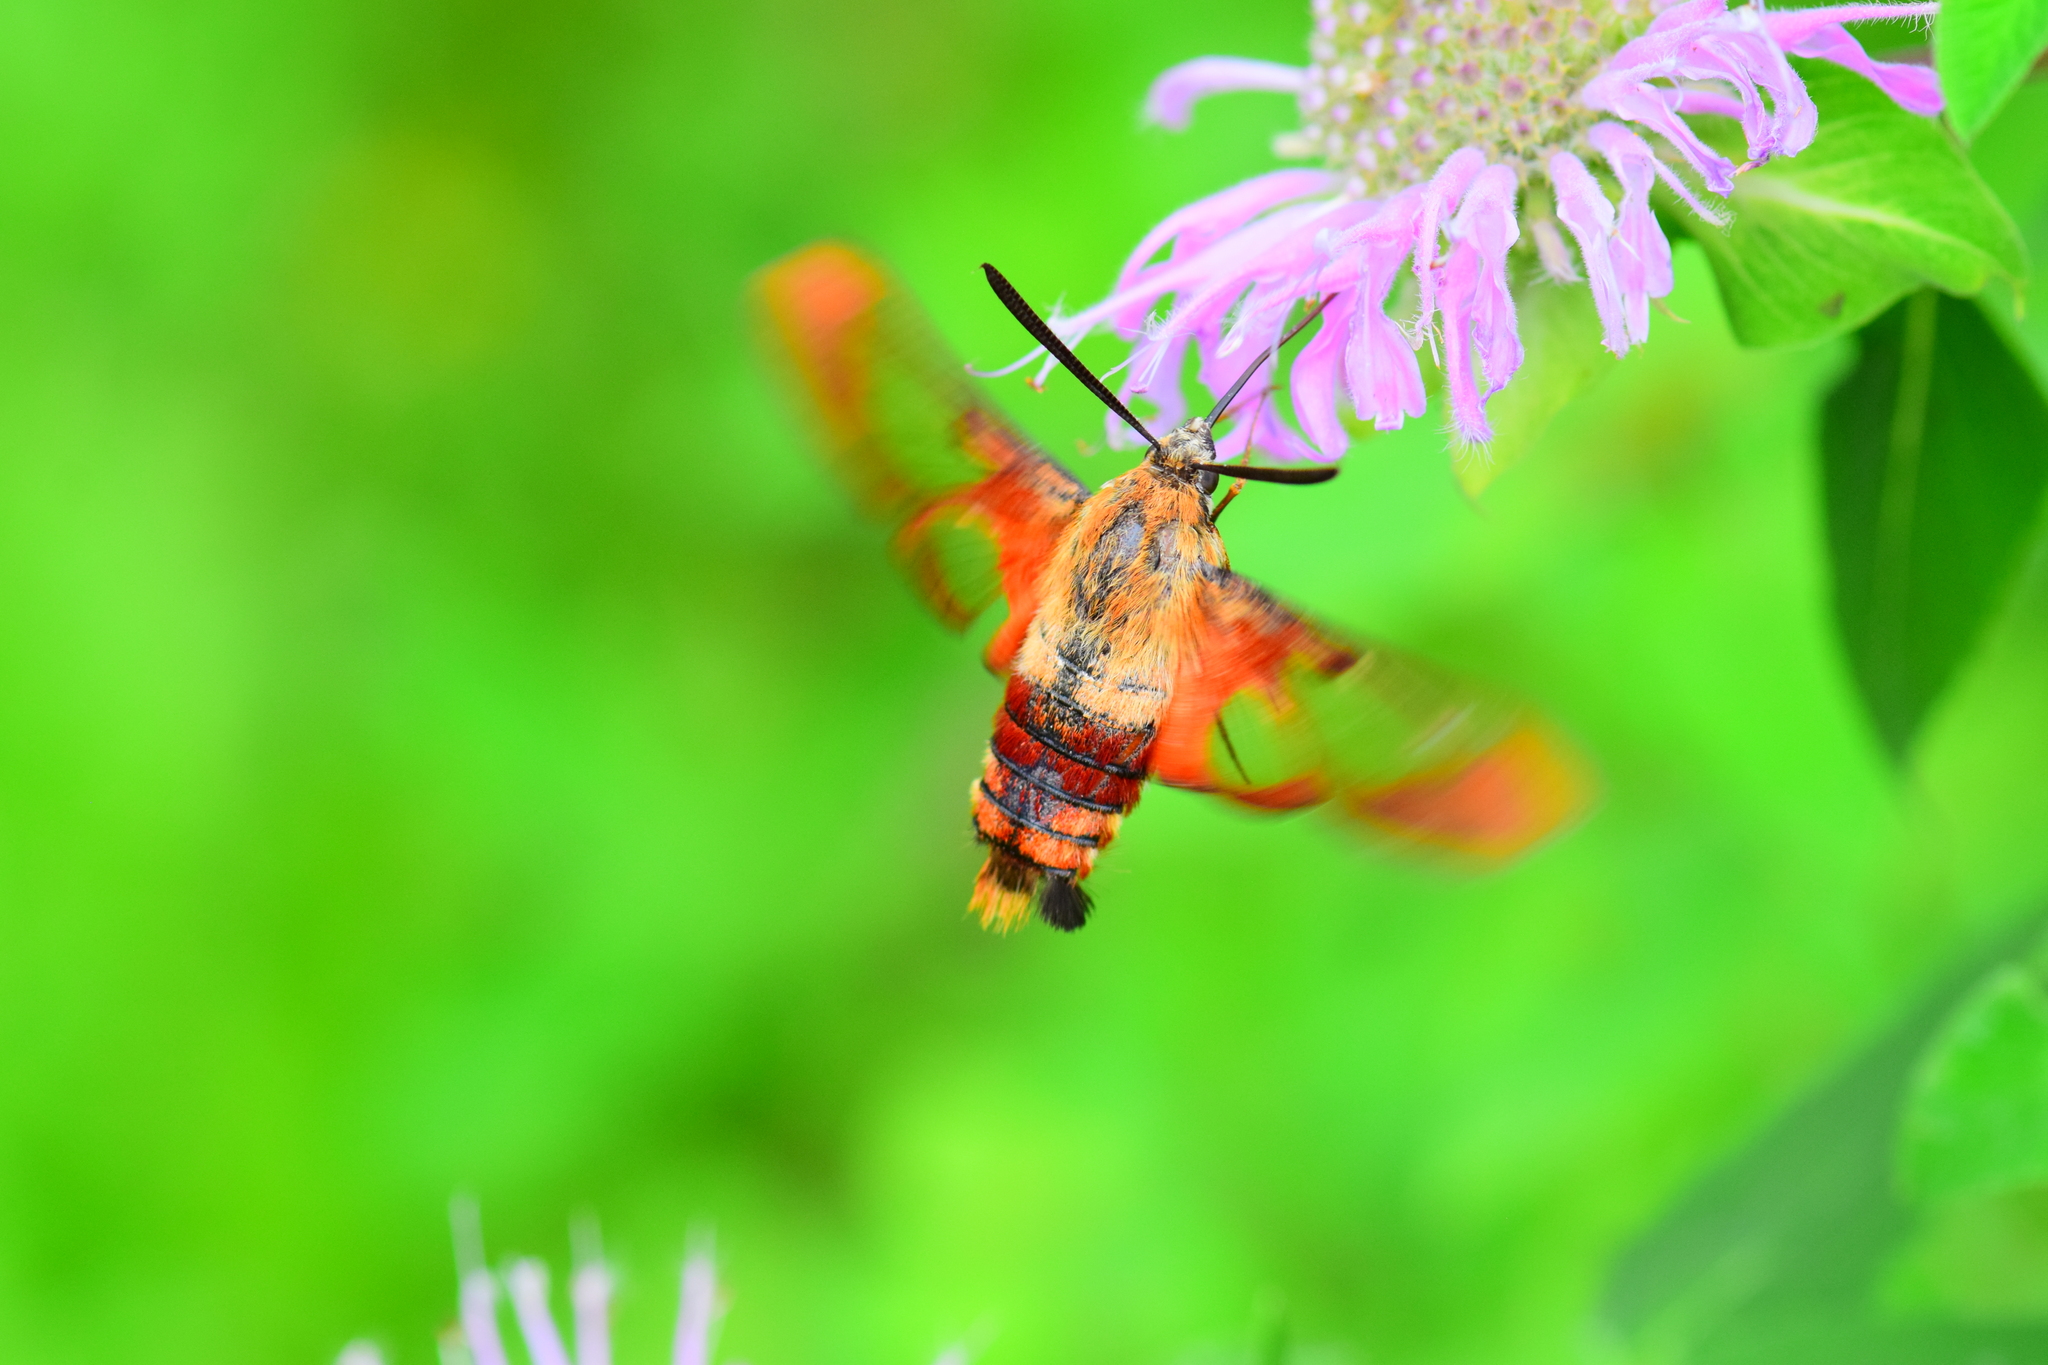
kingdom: Animalia
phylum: Arthropoda
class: Insecta
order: Lepidoptera
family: Sphingidae
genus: Hemaris
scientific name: Hemaris thysbe
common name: Common clear-wing
